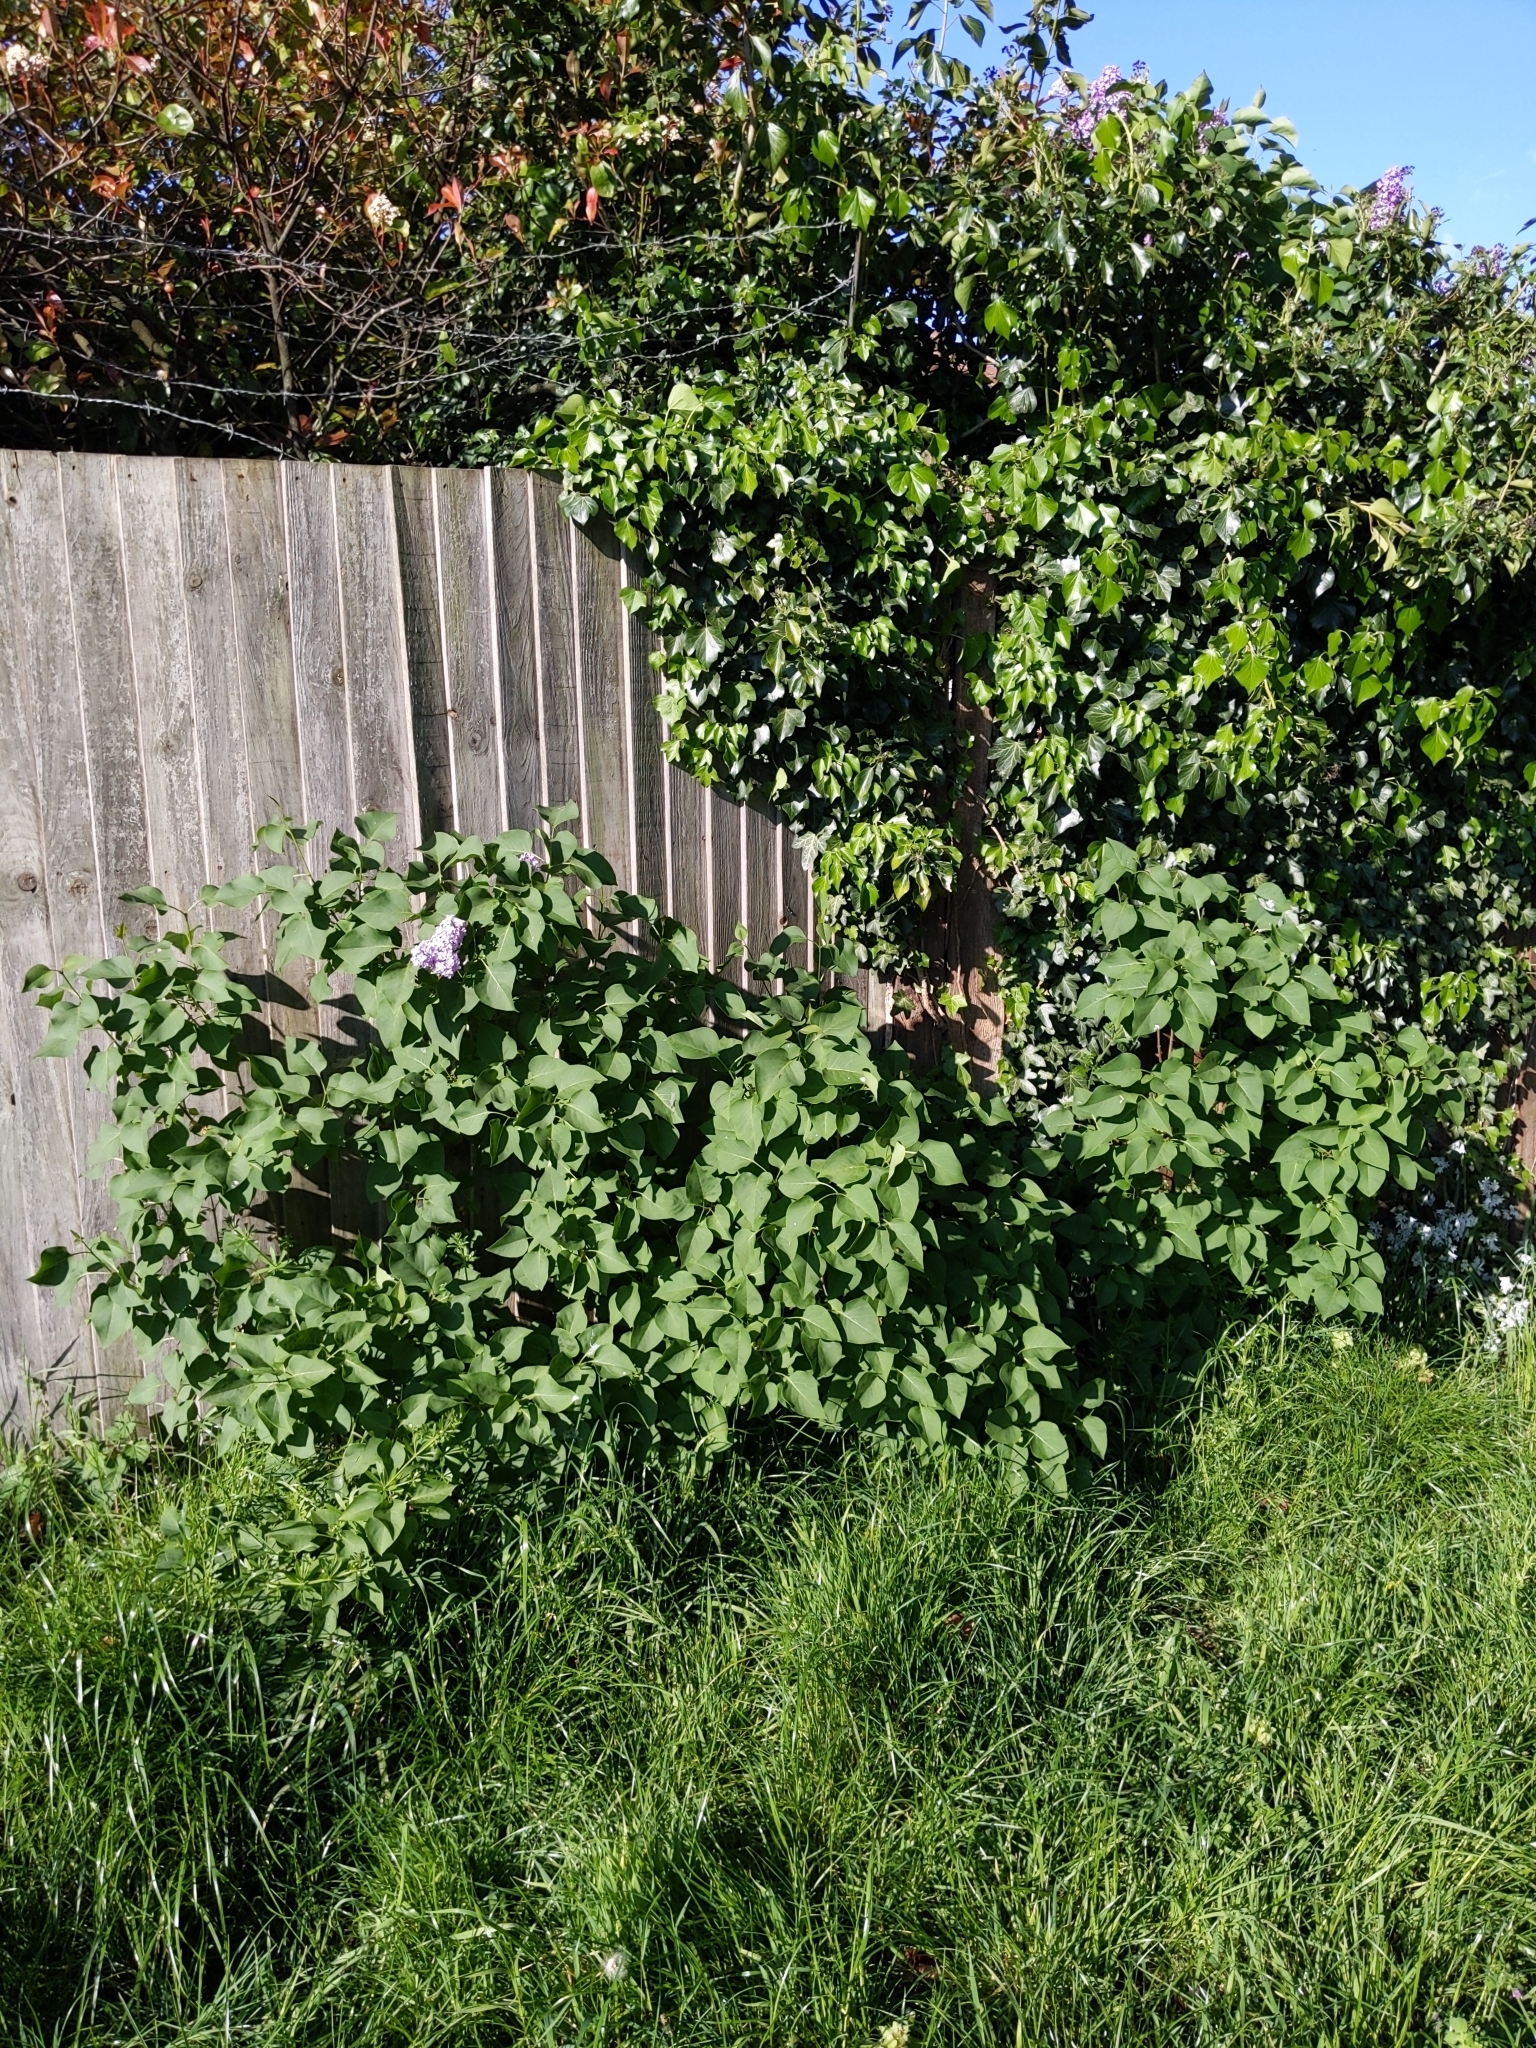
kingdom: Plantae
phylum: Tracheophyta
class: Magnoliopsida
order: Lamiales
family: Oleaceae
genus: Syringa
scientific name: Syringa vulgaris
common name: Common lilac
